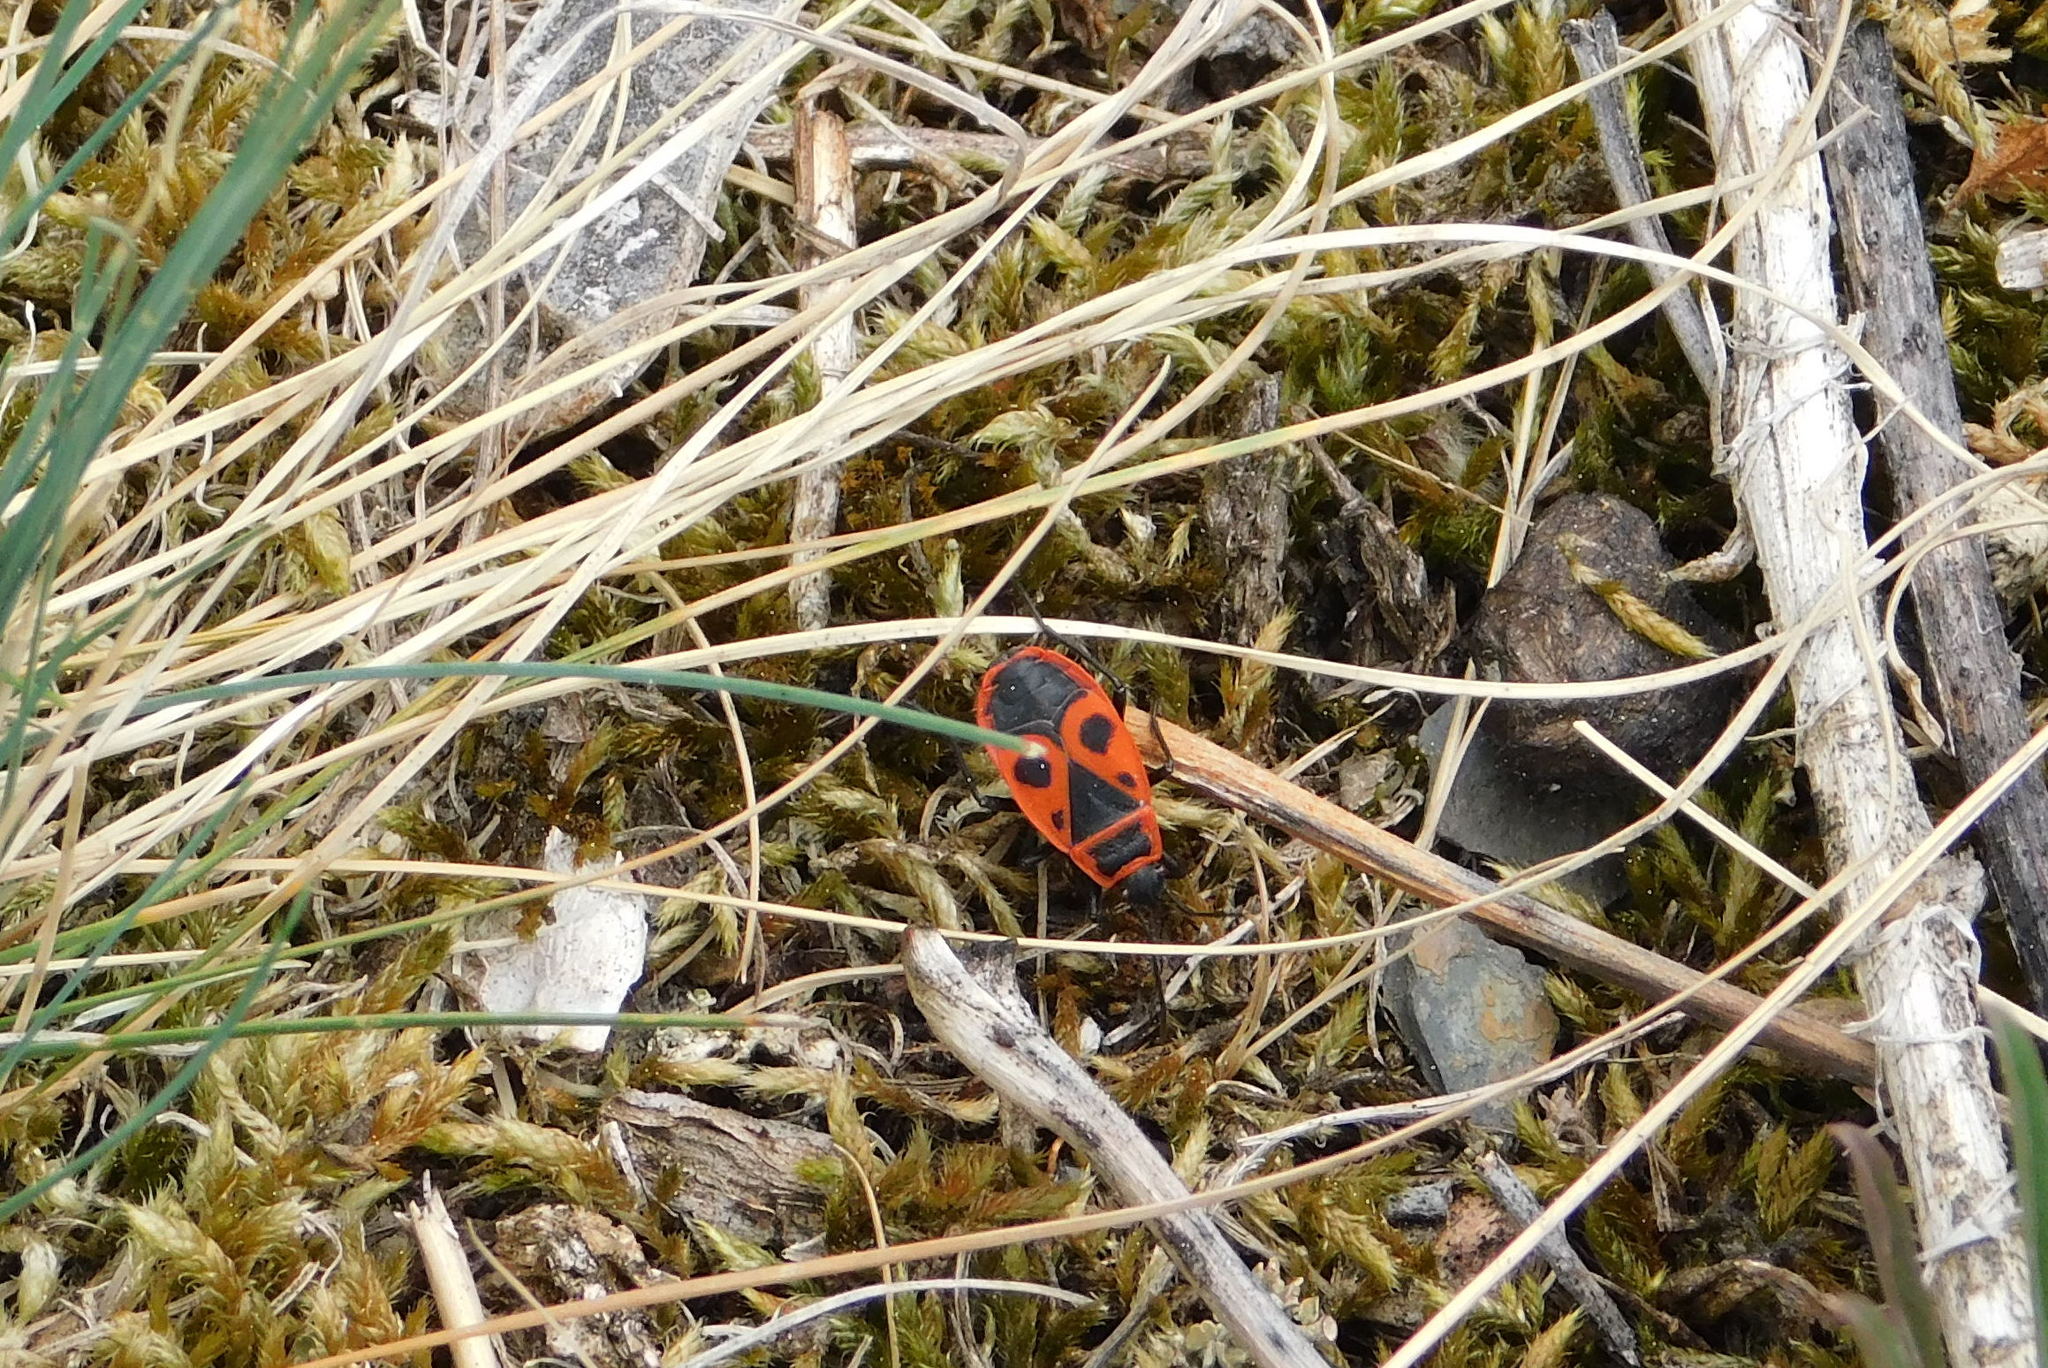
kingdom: Animalia
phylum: Arthropoda
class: Insecta
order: Hemiptera
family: Pyrrhocoridae
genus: Pyrrhocoris
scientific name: Pyrrhocoris apterus
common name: Firebug
